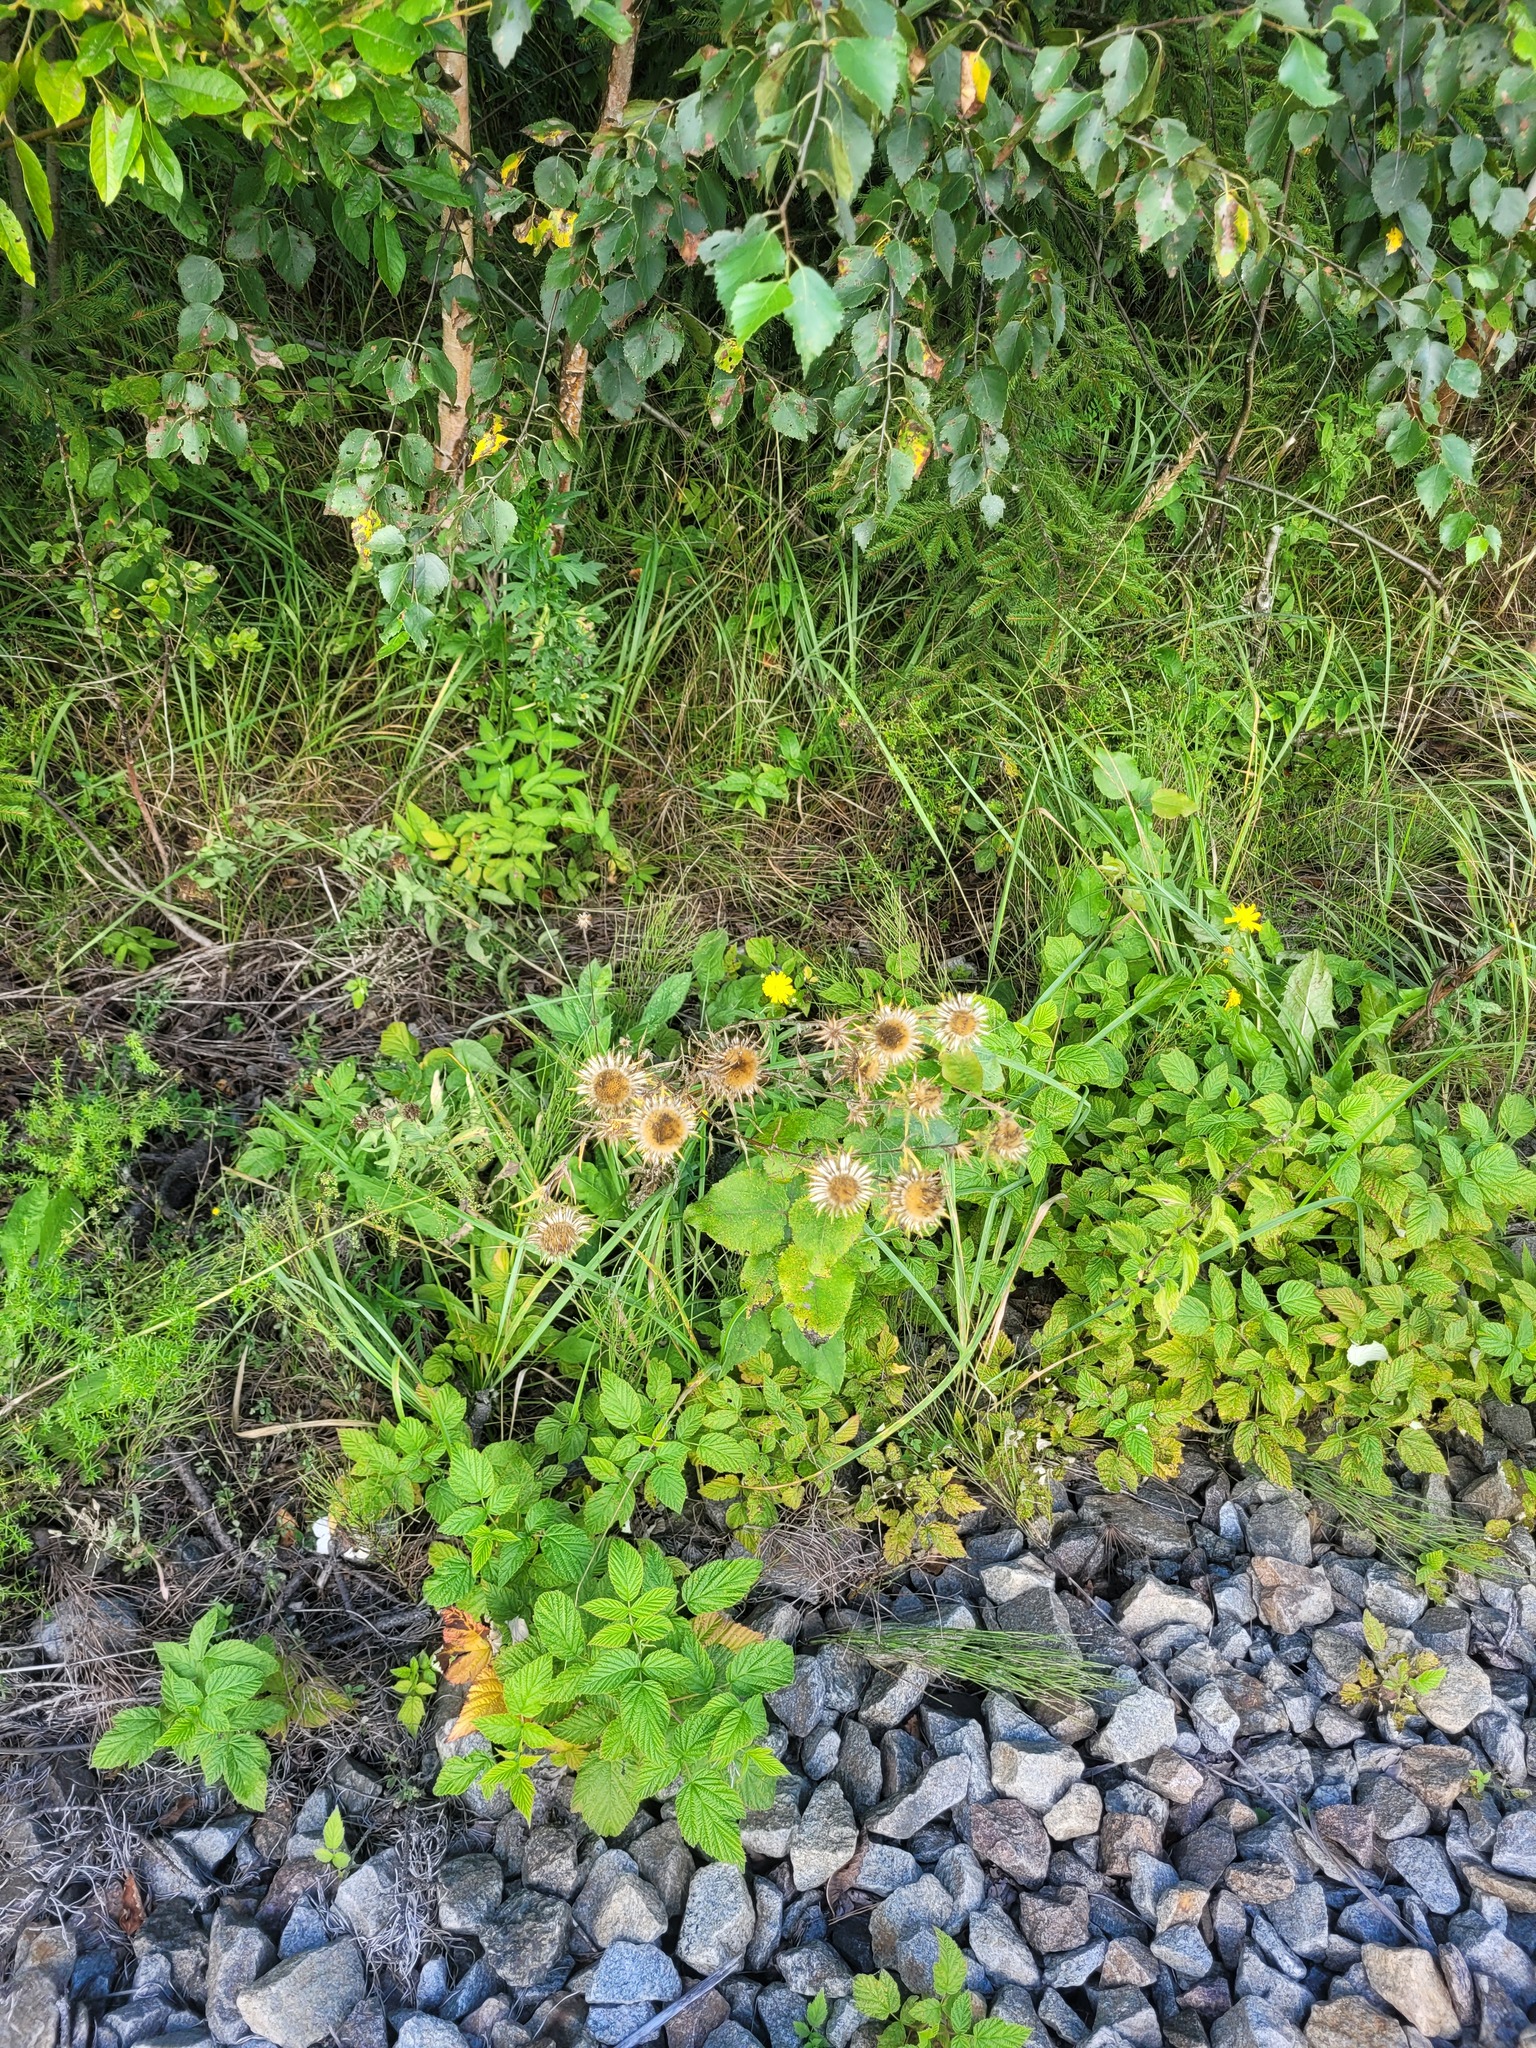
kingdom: Plantae
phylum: Tracheophyta
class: Magnoliopsida
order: Asterales
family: Asteraceae
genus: Carlina
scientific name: Carlina biebersteinii
